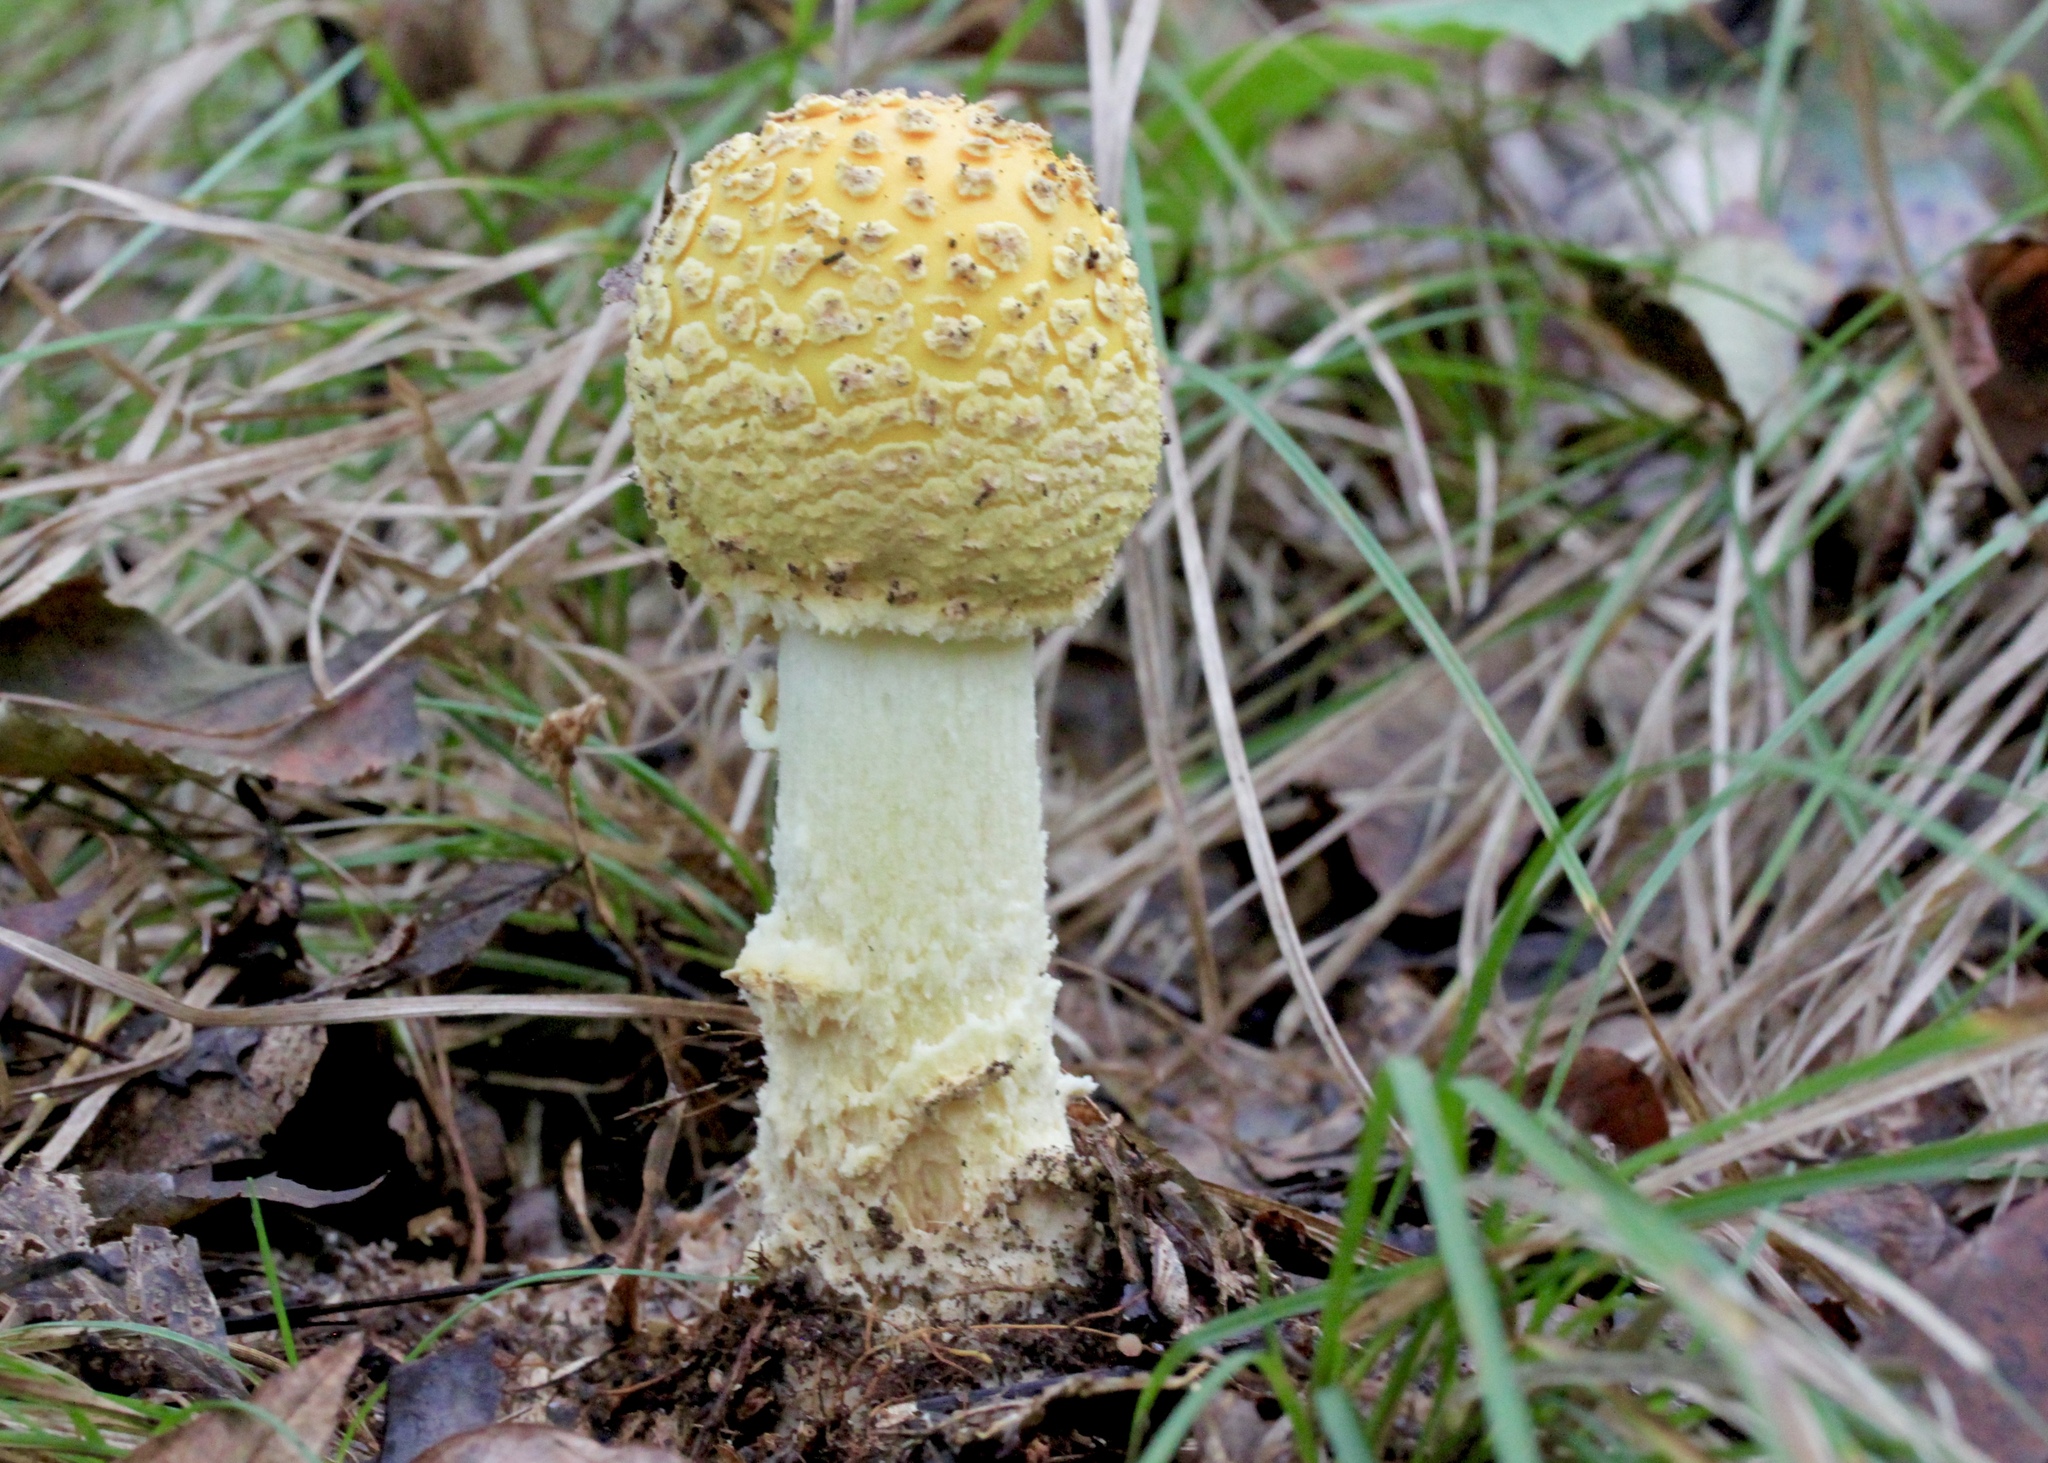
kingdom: Fungi
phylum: Basidiomycota
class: Agaricomycetes
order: Agaricales
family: Amanitaceae
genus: Amanita
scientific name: Amanita muscaria
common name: Fly agaric
